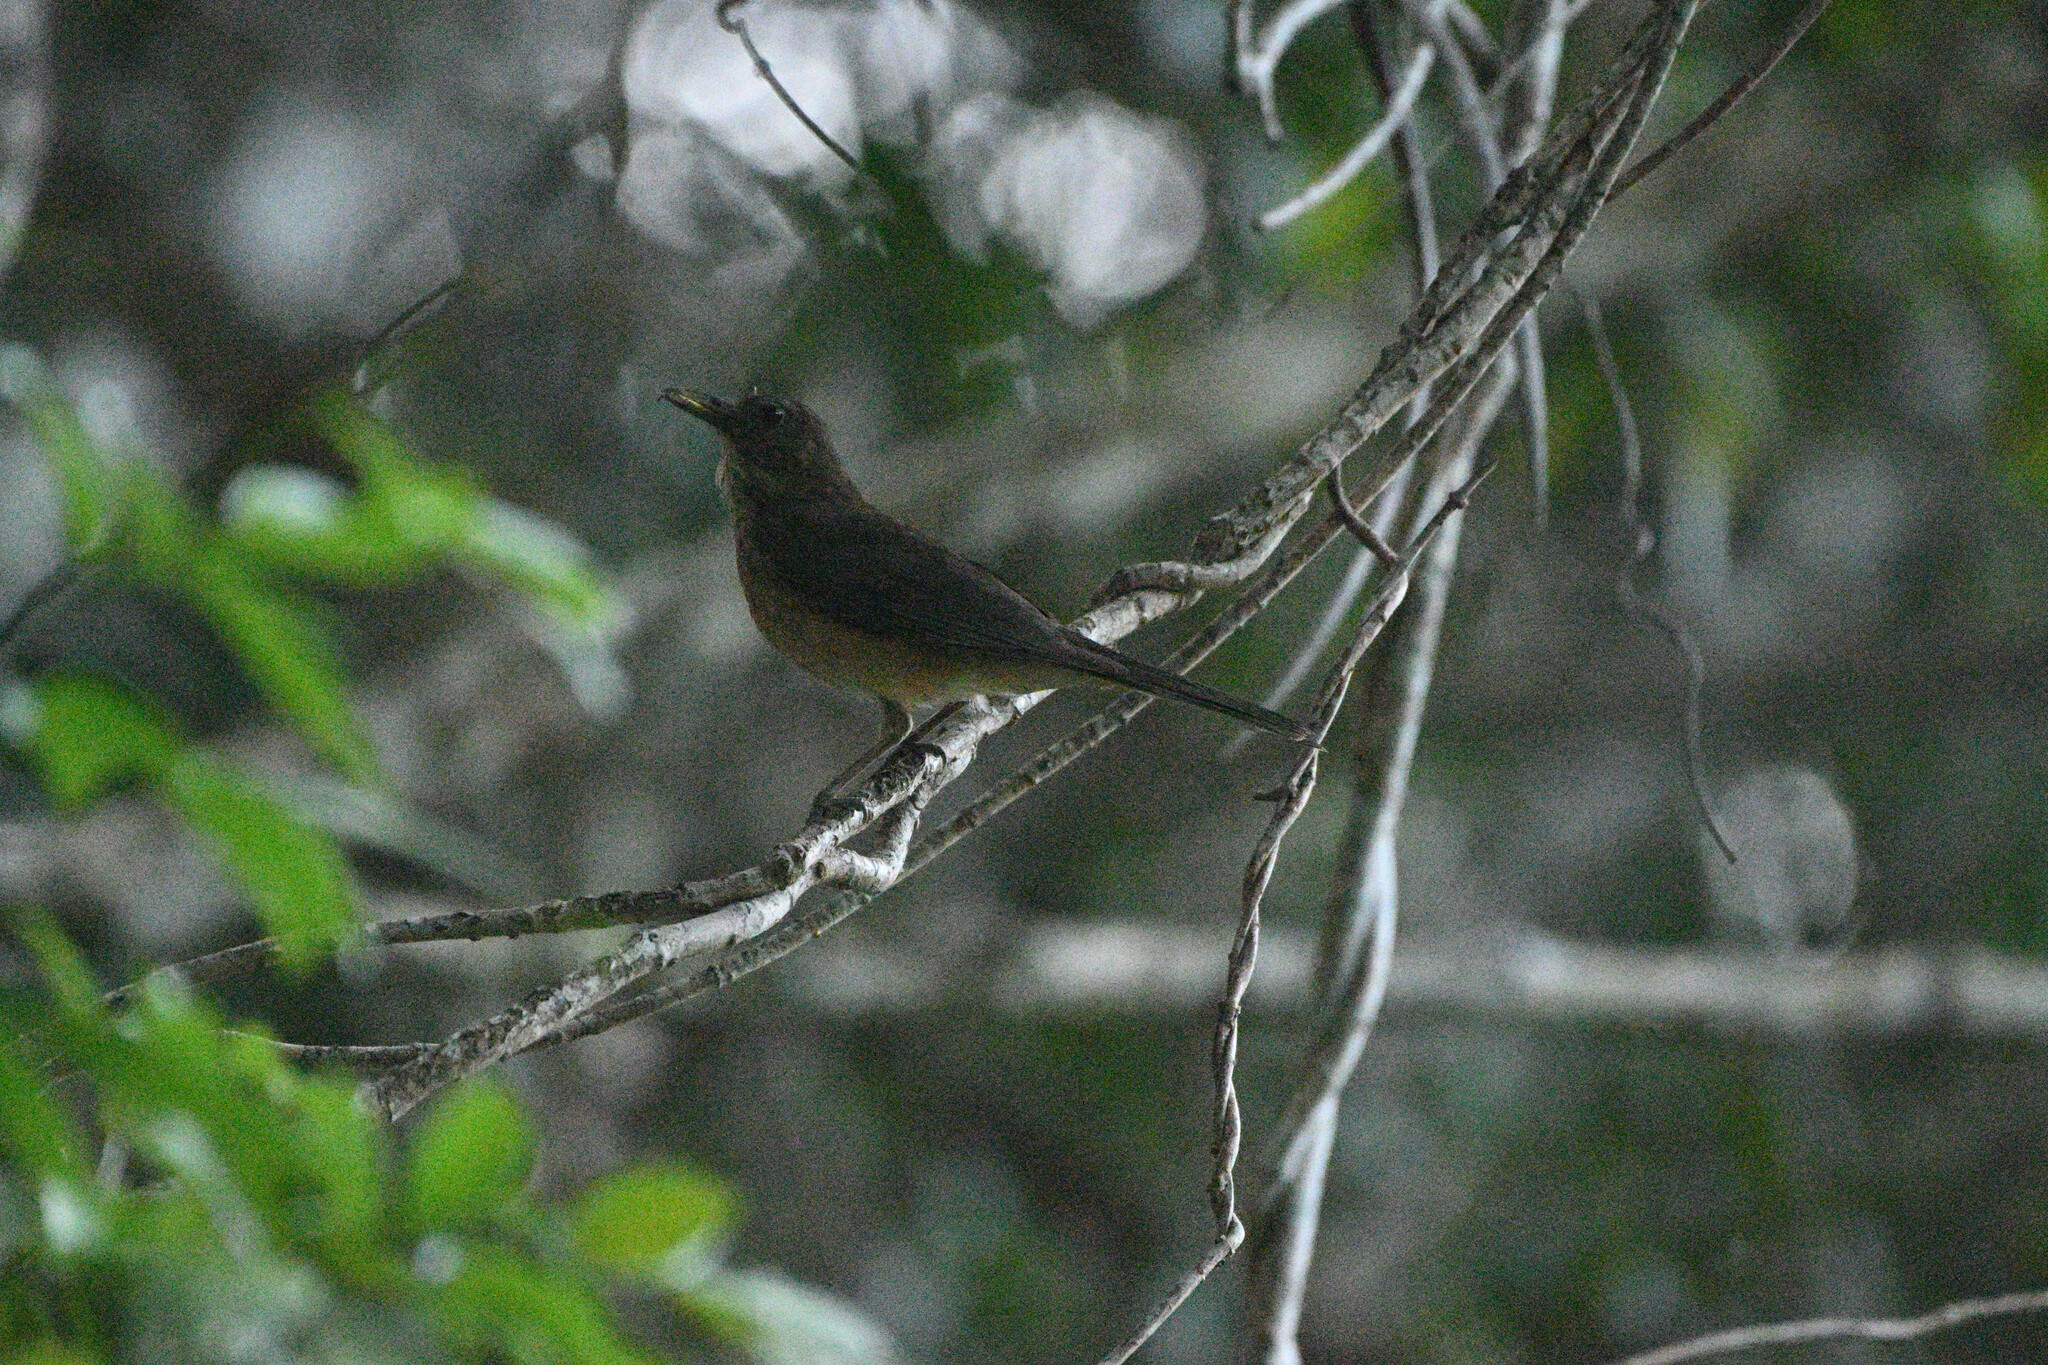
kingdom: Animalia
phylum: Chordata
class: Aves
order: Passeriformes
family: Turdidae
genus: Turdus
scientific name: Turdus grayi
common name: Clay-colored thrush
